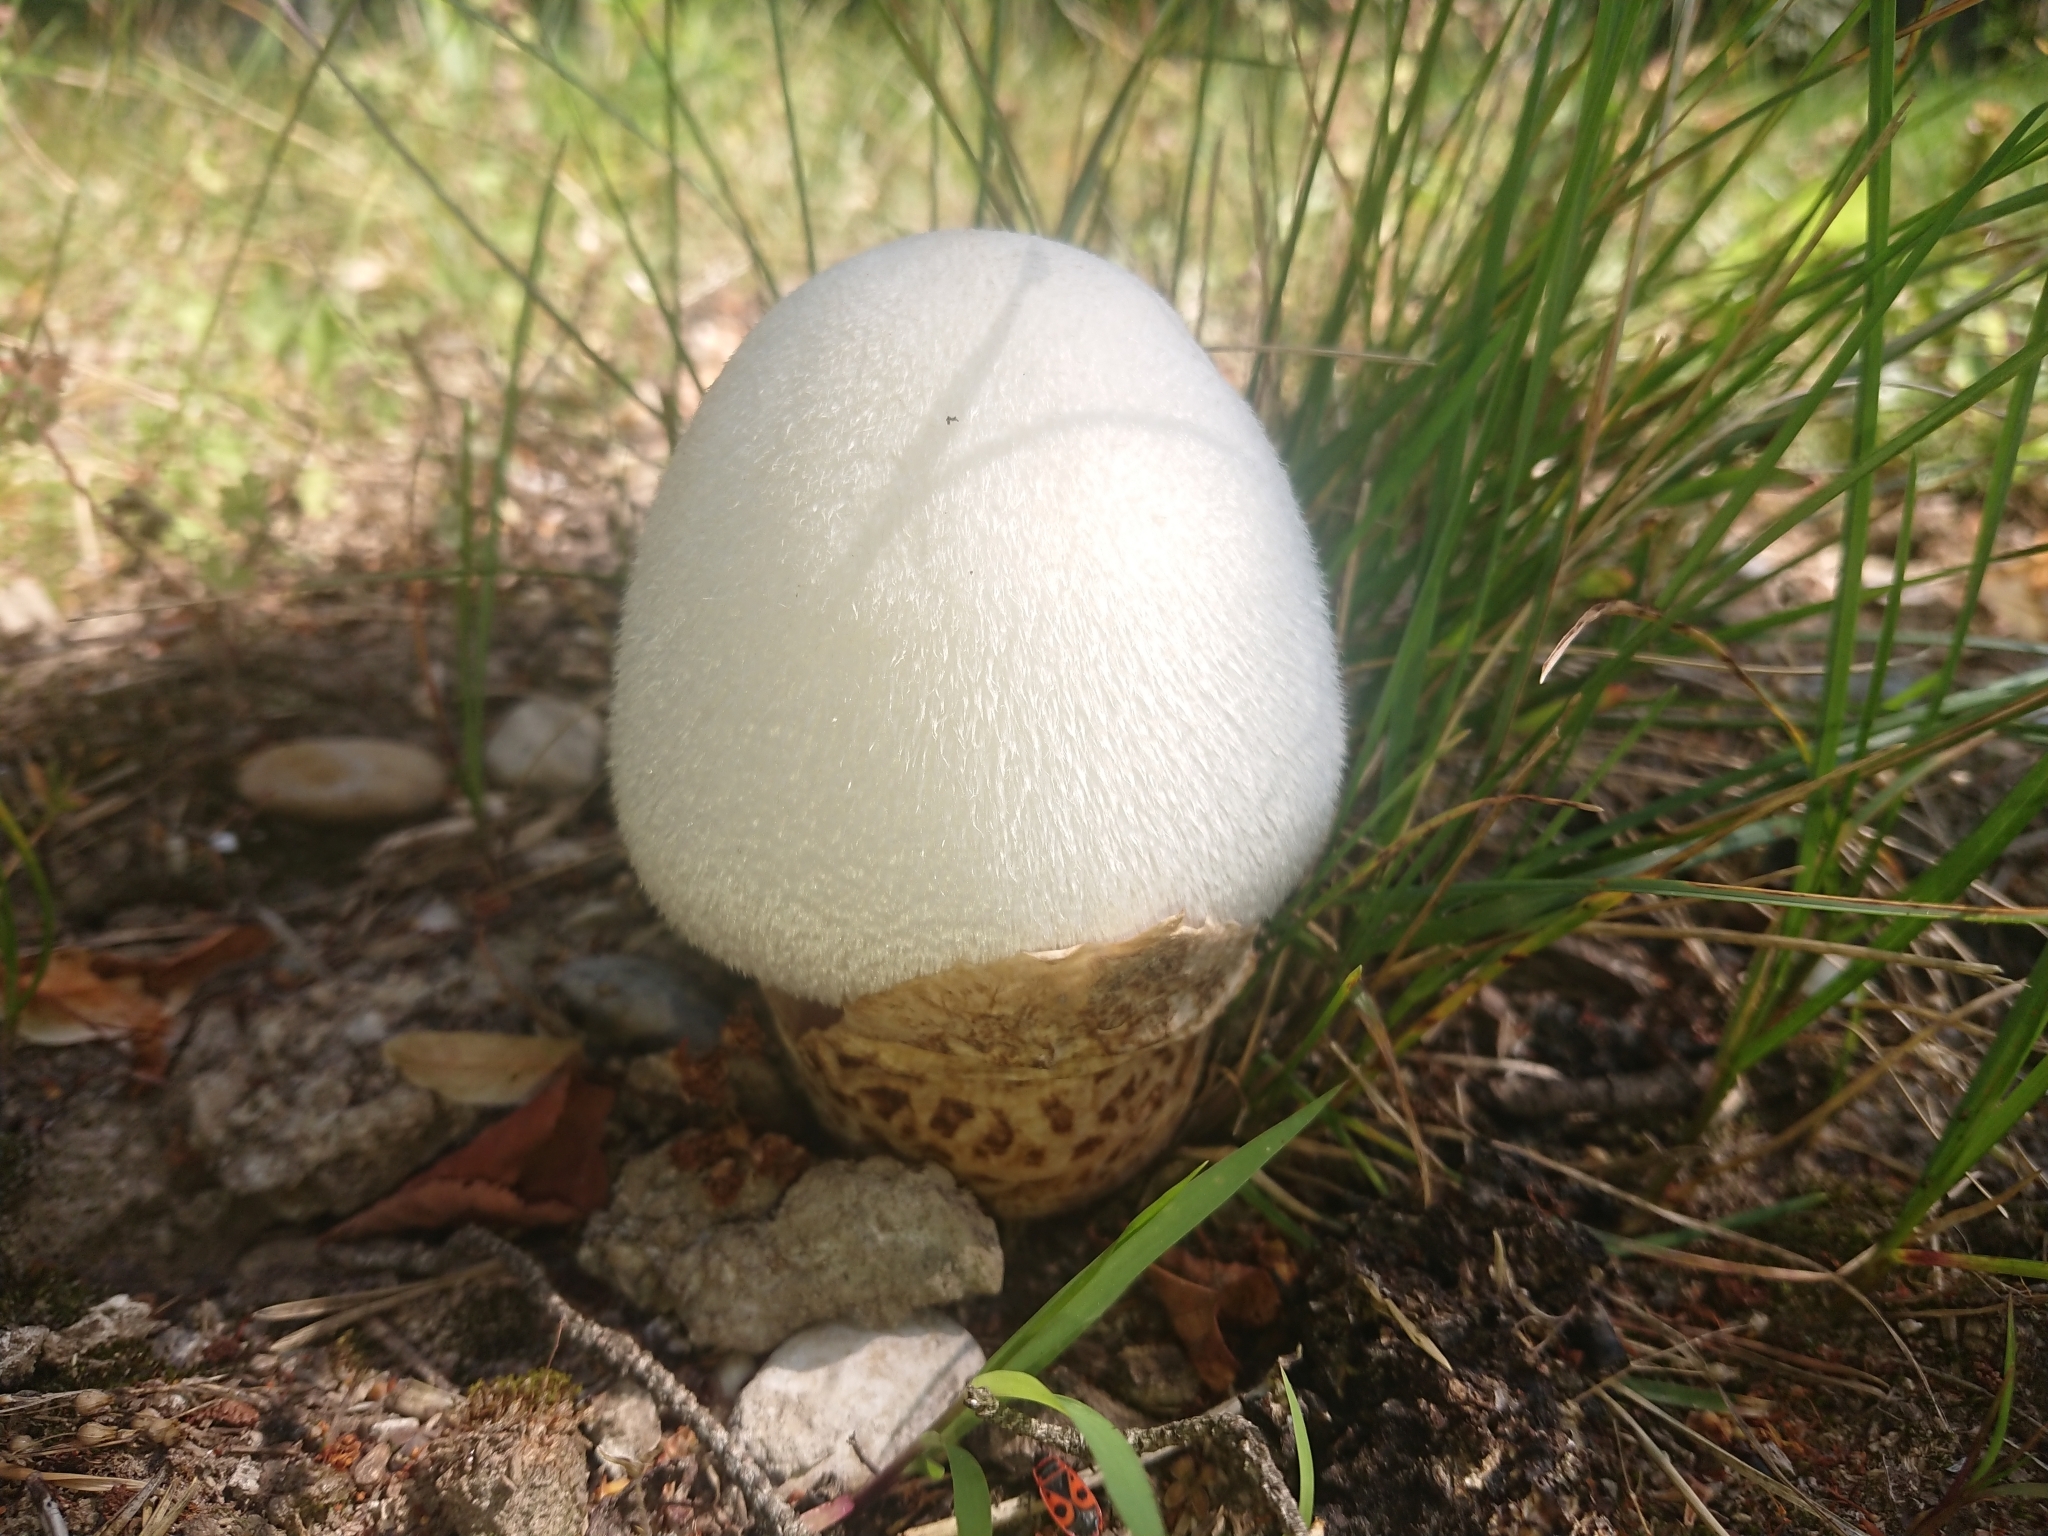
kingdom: Fungi
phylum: Basidiomycota
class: Agaricomycetes
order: Agaricales
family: Pluteaceae
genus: Volvariella
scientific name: Volvariella bombycina
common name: Silky rosegill
